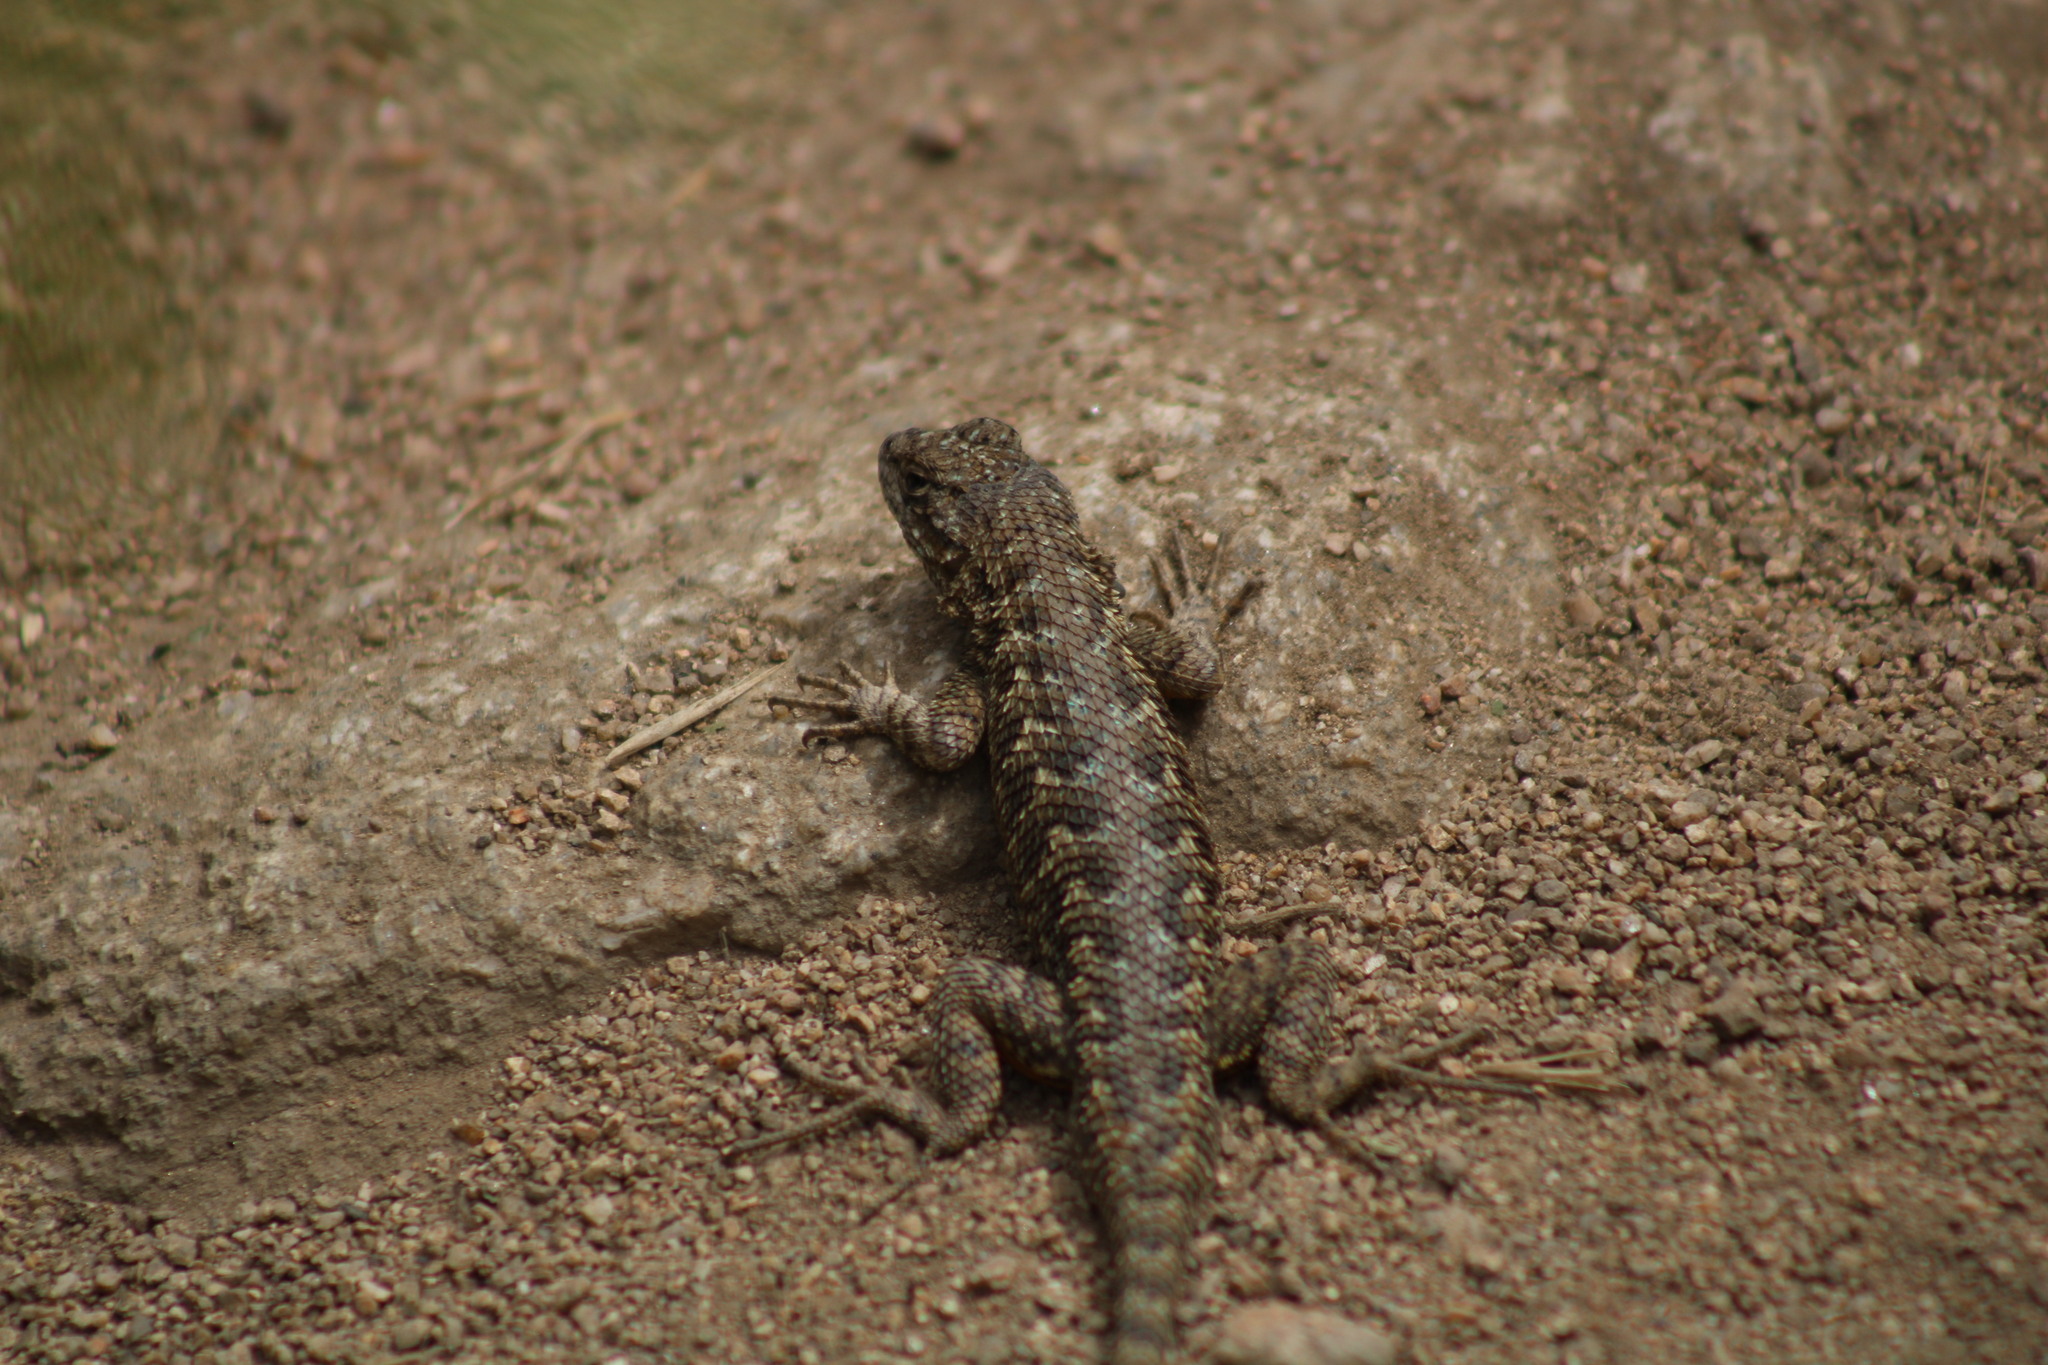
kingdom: Animalia
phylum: Chordata
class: Squamata
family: Phrynosomatidae
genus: Sceloporus
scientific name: Sceloporus occidentalis
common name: Western fence lizard
